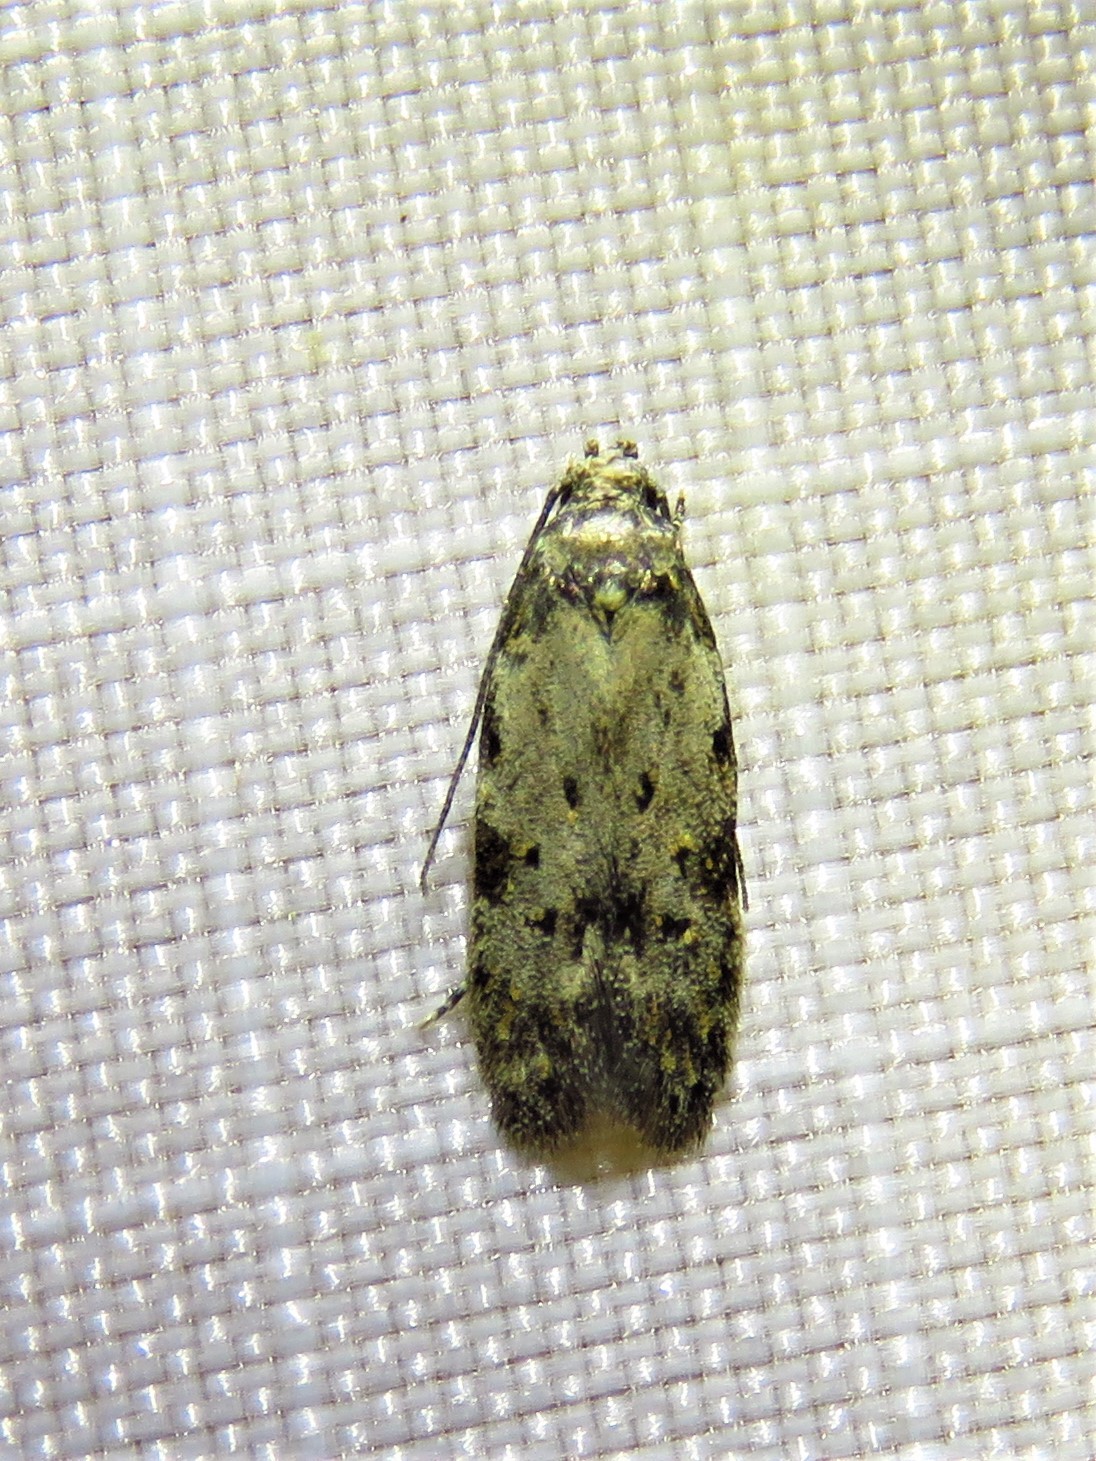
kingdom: Animalia
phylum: Arthropoda
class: Insecta
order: Lepidoptera
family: Autostichidae
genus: Taygete
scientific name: Taygete attributella
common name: Triangle-marked twirler moth
